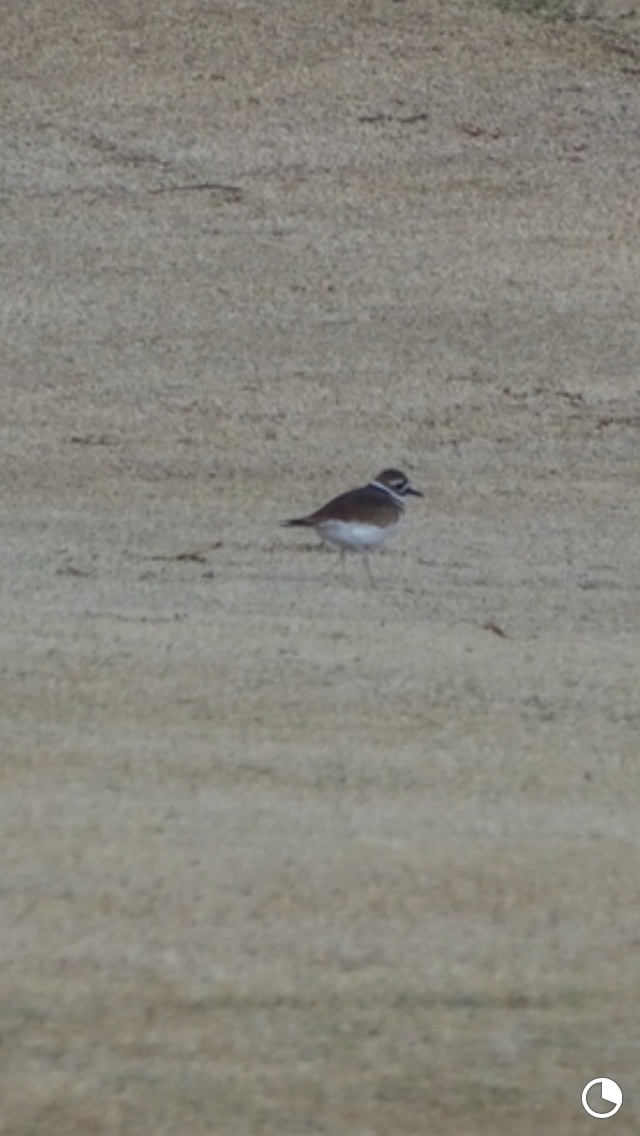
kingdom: Animalia
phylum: Chordata
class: Aves
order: Charadriiformes
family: Charadriidae
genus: Charadrius
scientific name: Charadrius vociferus
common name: Killdeer
